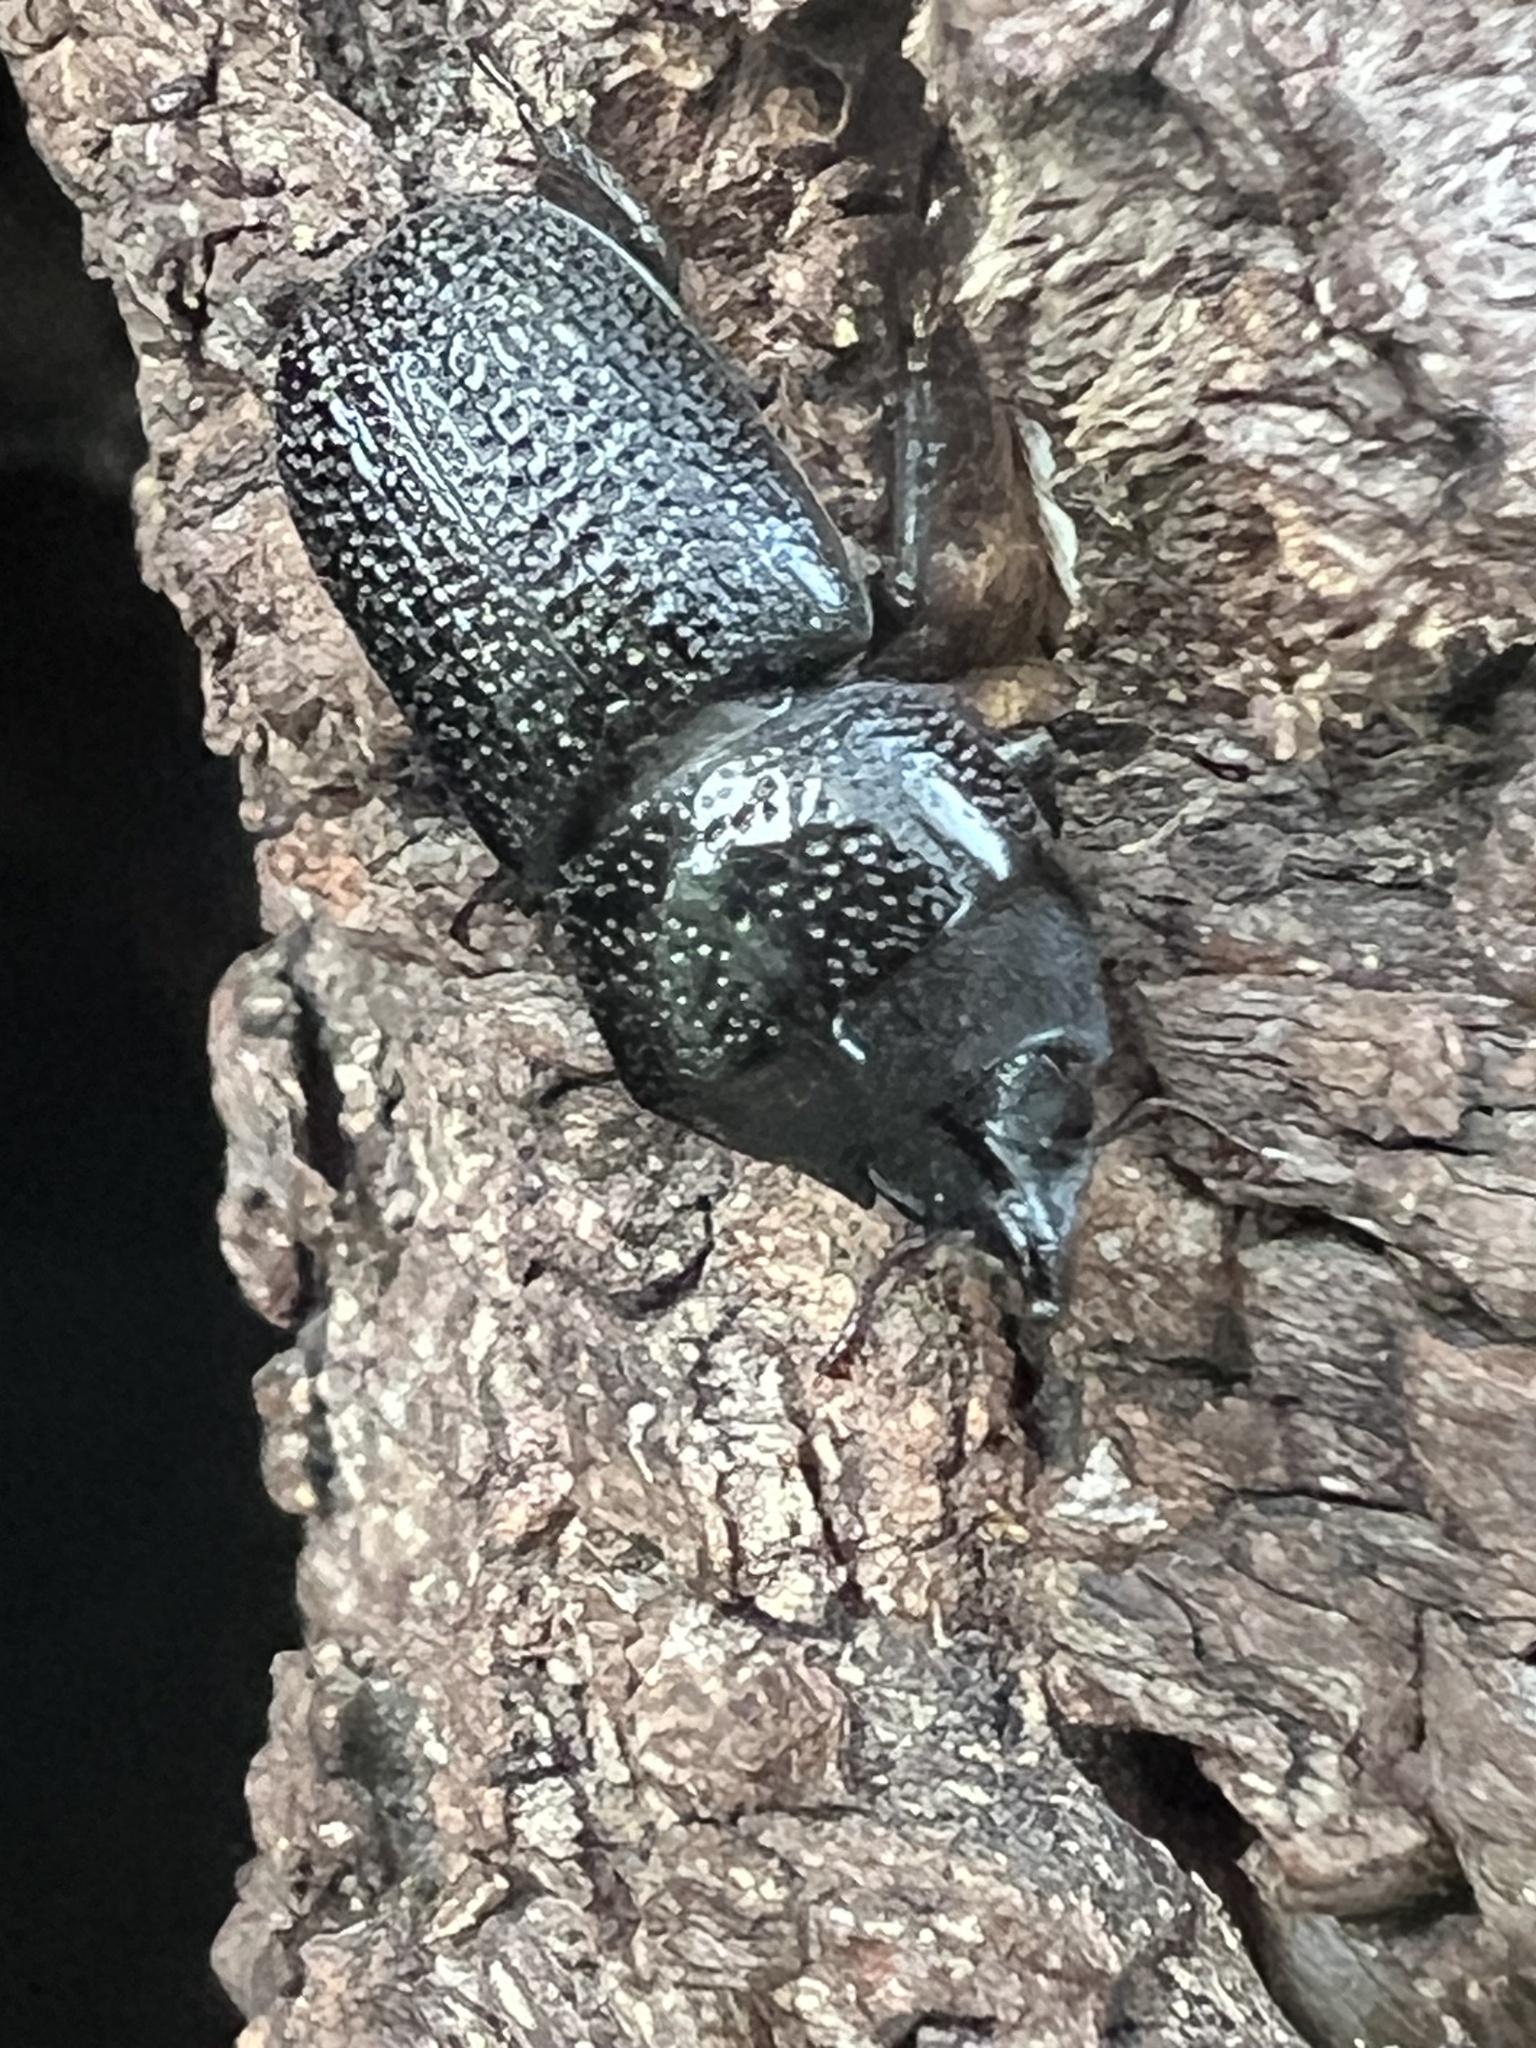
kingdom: Animalia
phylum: Arthropoda
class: Insecta
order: Coleoptera
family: Lucanidae
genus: Sinodendron
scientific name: Sinodendron rugosum
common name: Rugose stag beelte
